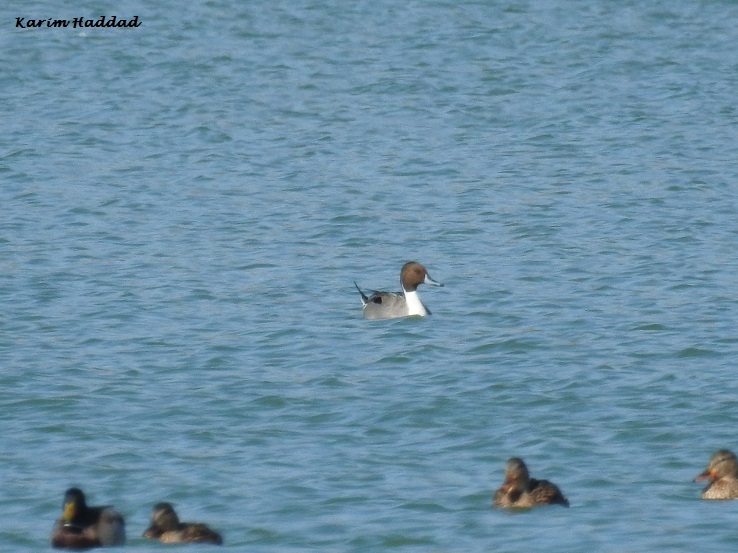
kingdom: Animalia
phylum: Chordata
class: Aves
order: Anseriformes
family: Anatidae
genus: Anas
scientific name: Anas acuta
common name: Northern pintail
